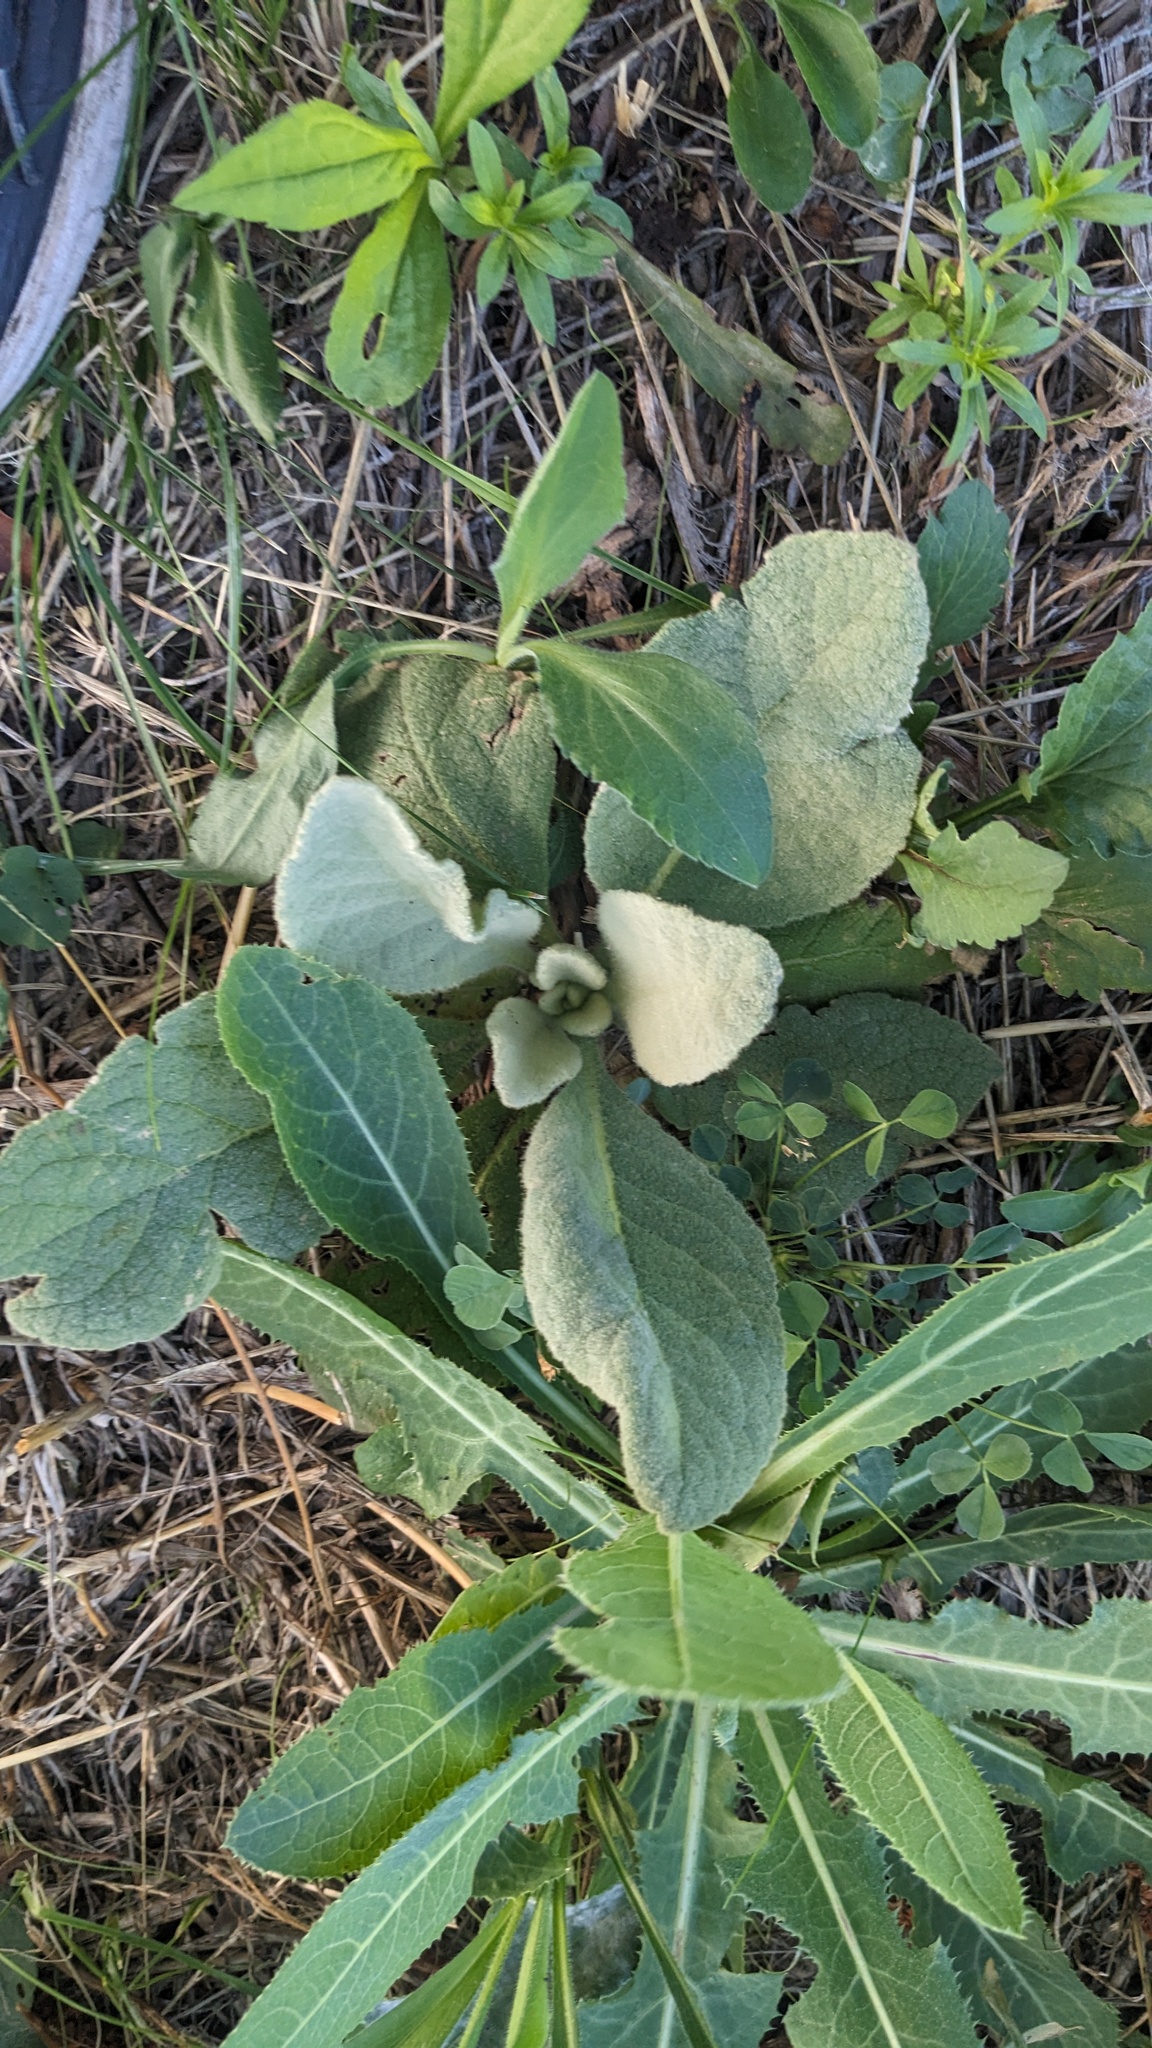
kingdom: Plantae
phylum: Tracheophyta
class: Magnoliopsida
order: Lamiales
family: Scrophulariaceae
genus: Verbascum
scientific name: Verbascum thapsus
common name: Common mullein
